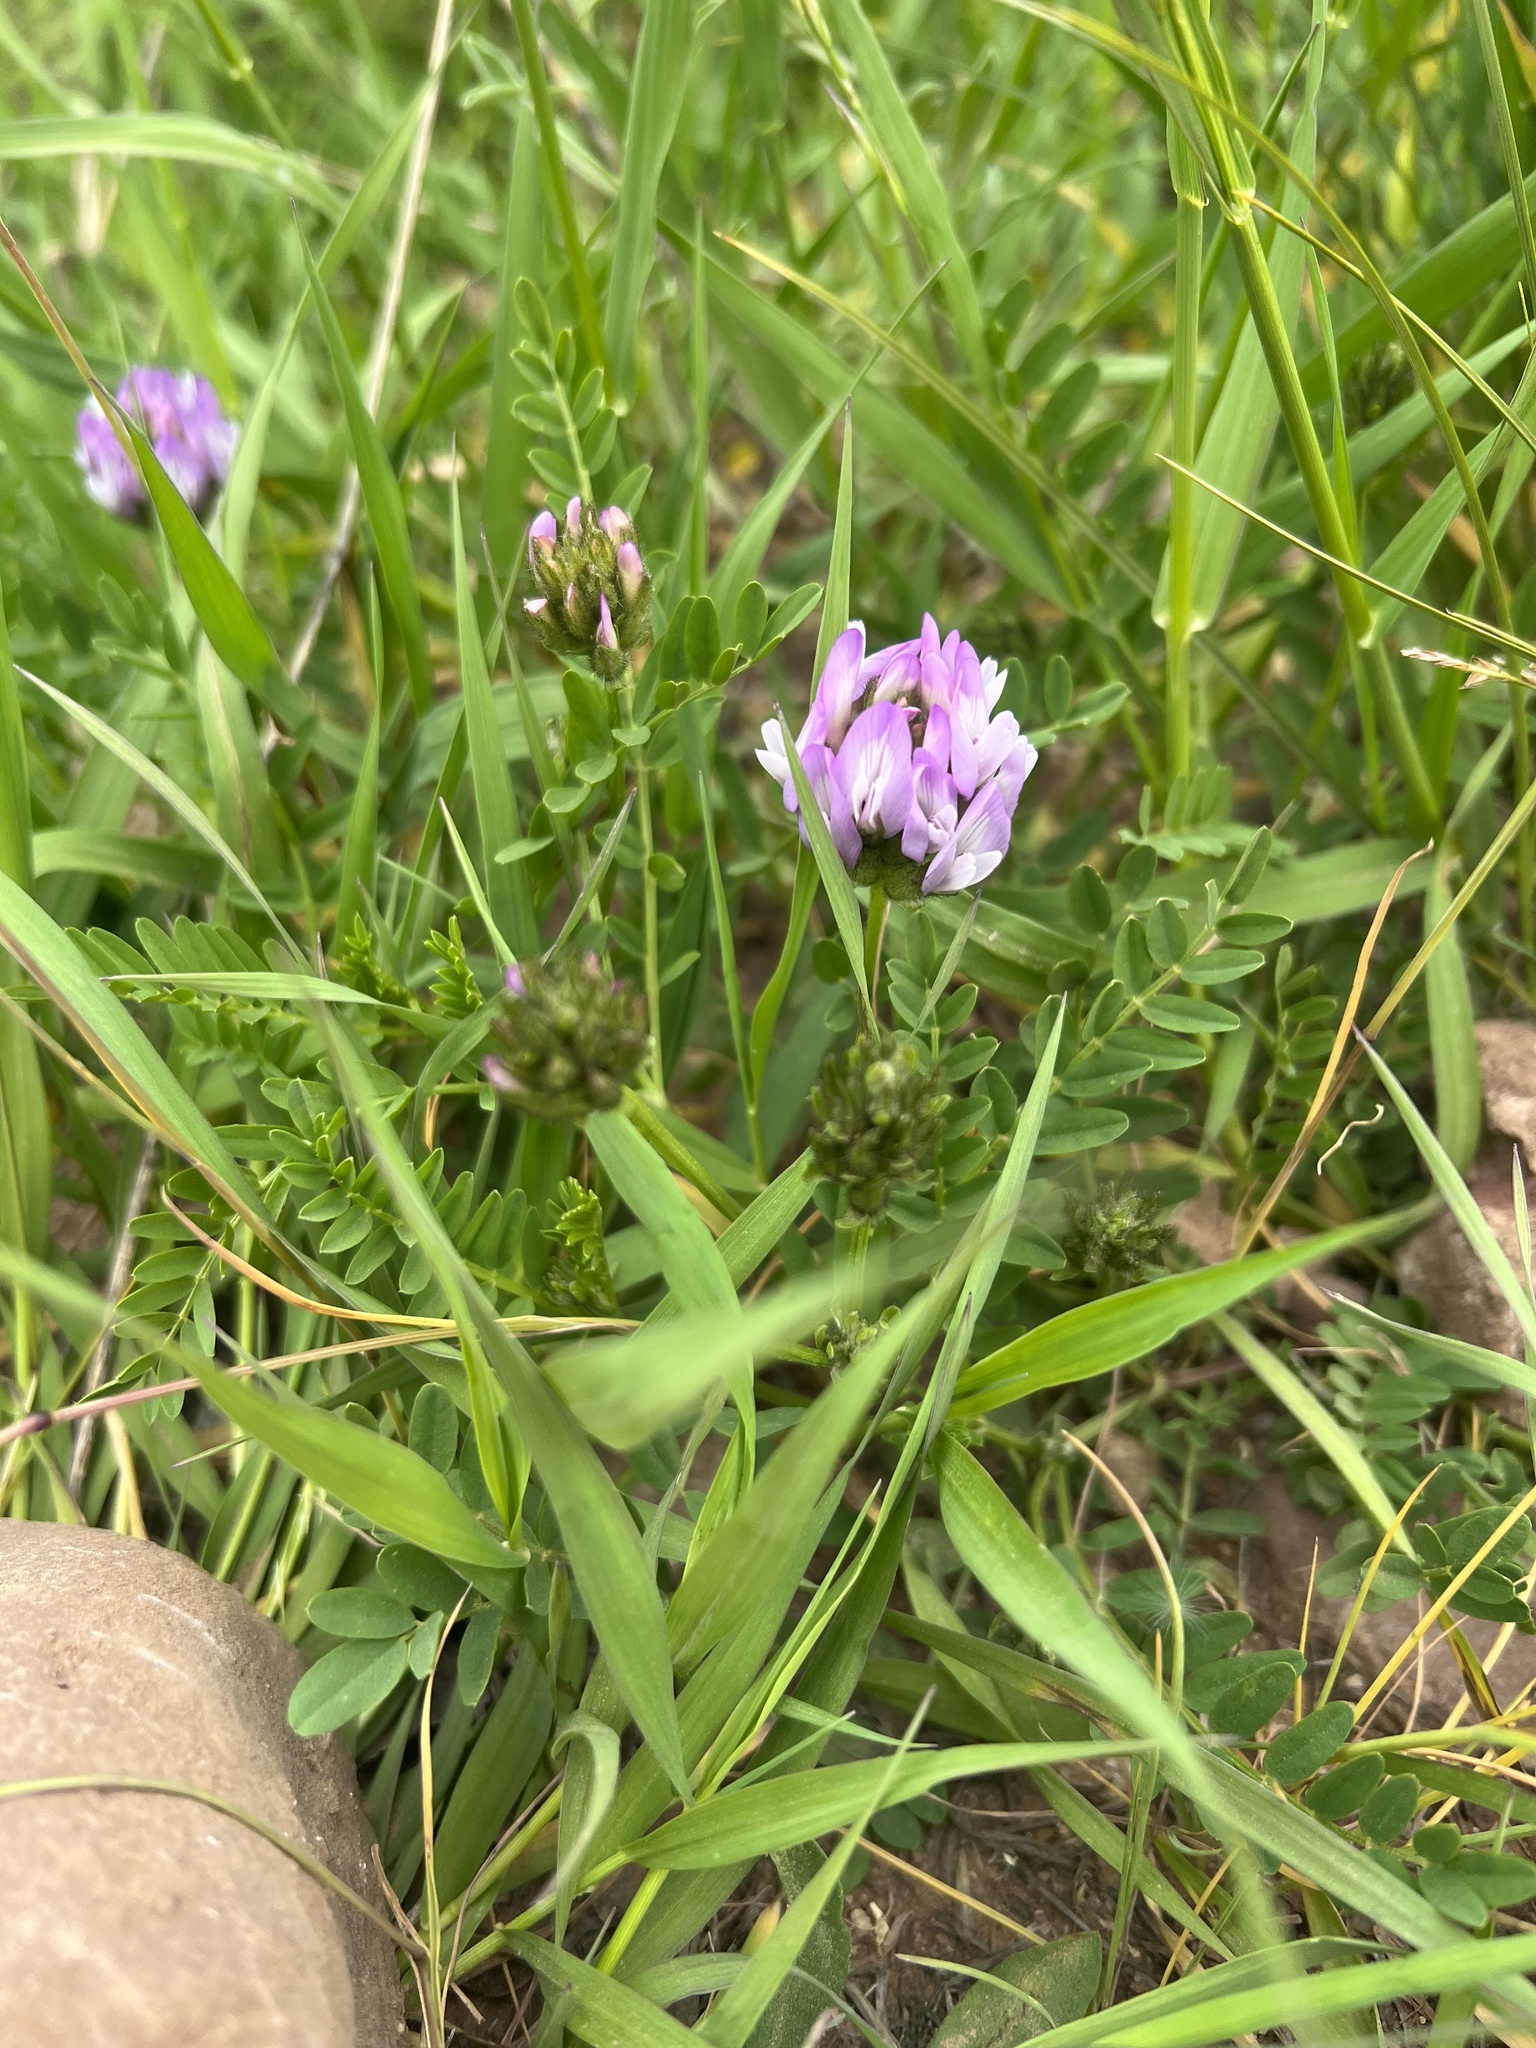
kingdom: Plantae
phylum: Tracheophyta
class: Magnoliopsida
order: Fabales
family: Fabaceae
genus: Astragalus
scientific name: Astragalus agrestis
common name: Field milk-vetch
